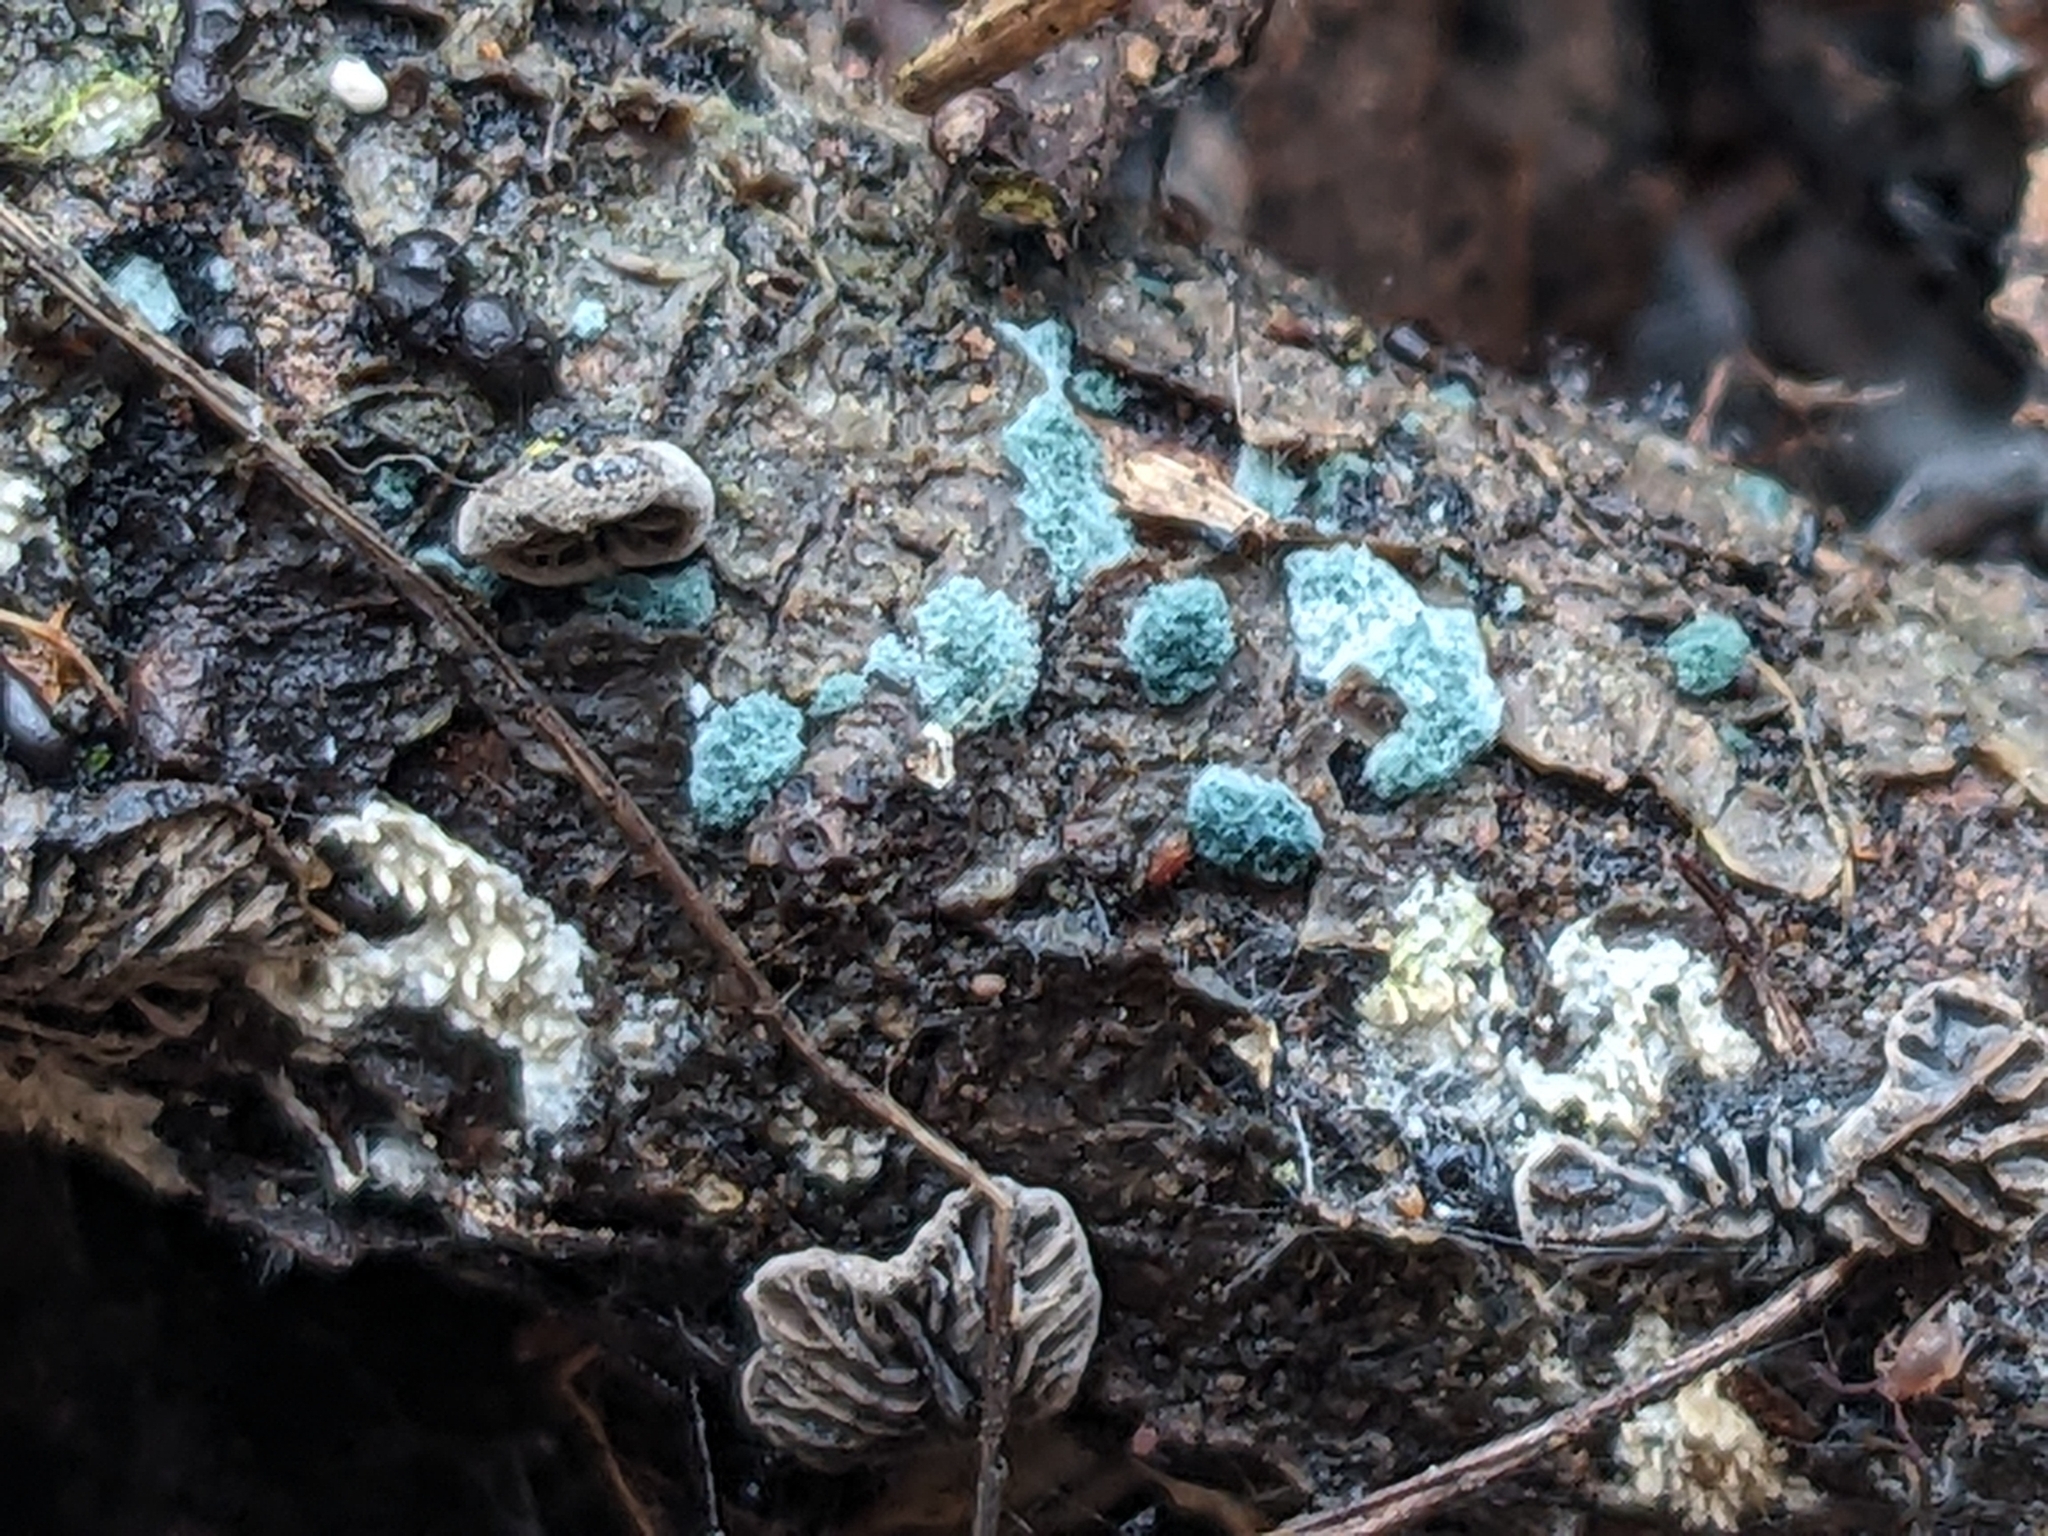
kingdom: Fungi
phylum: Ascomycota
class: Sordariomycetes
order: Hypocreales
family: Hypocreaceae
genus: Trichoderma
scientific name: Trichoderma viride
